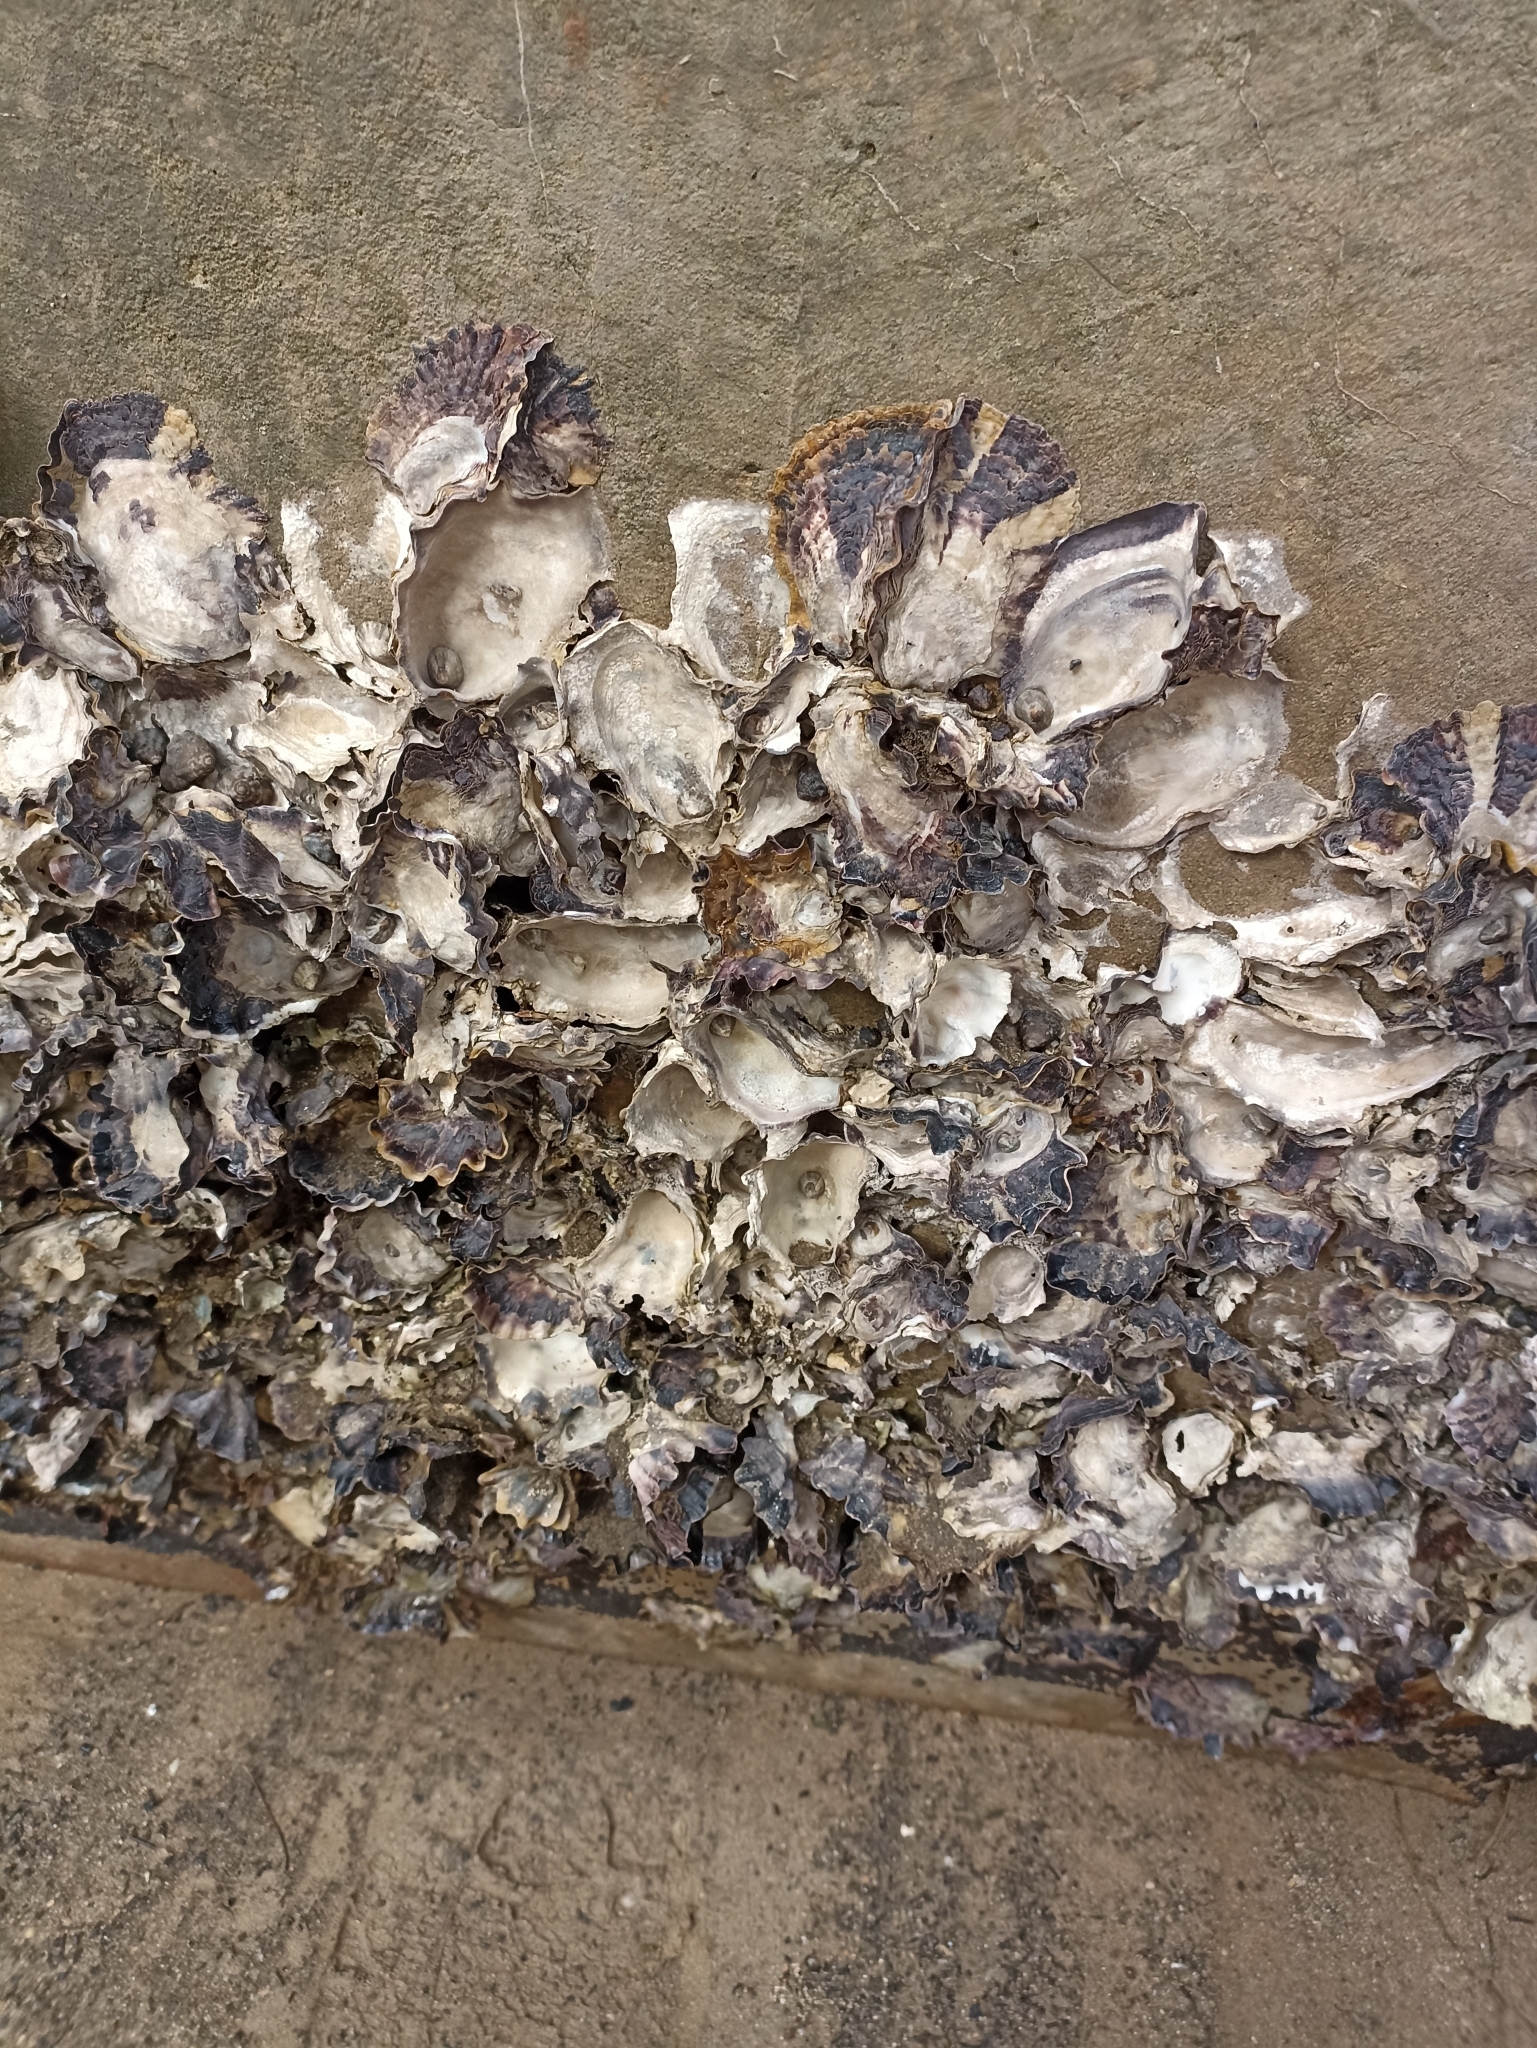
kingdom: Animalia
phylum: Mollusca
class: Bivalvia
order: Ostreida
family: Ostreidae
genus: Magallana
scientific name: Magallana gigas
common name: Pacific oyster
